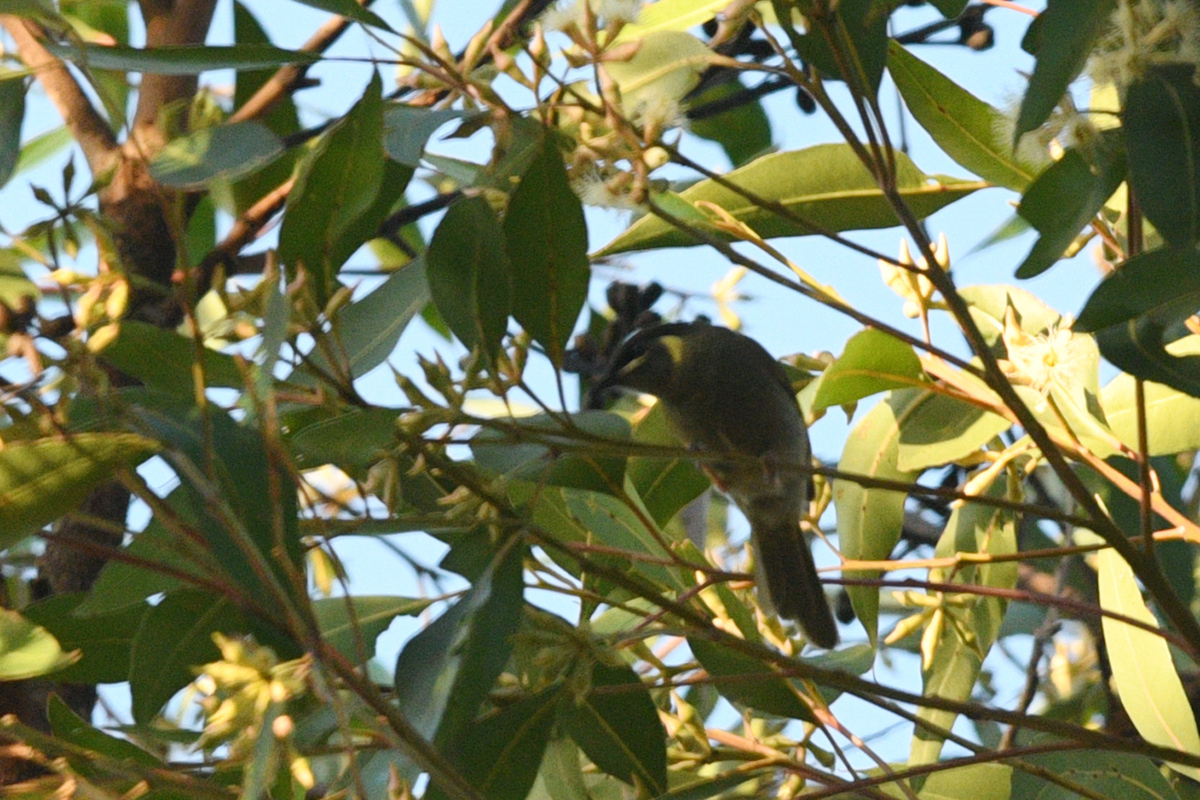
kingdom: Animalia
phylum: Chordata
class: Aves
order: Passeriformes
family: Meliphagidae
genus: Meliphaga
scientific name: Meliphaga lewinii
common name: Lewin's honeyeater
